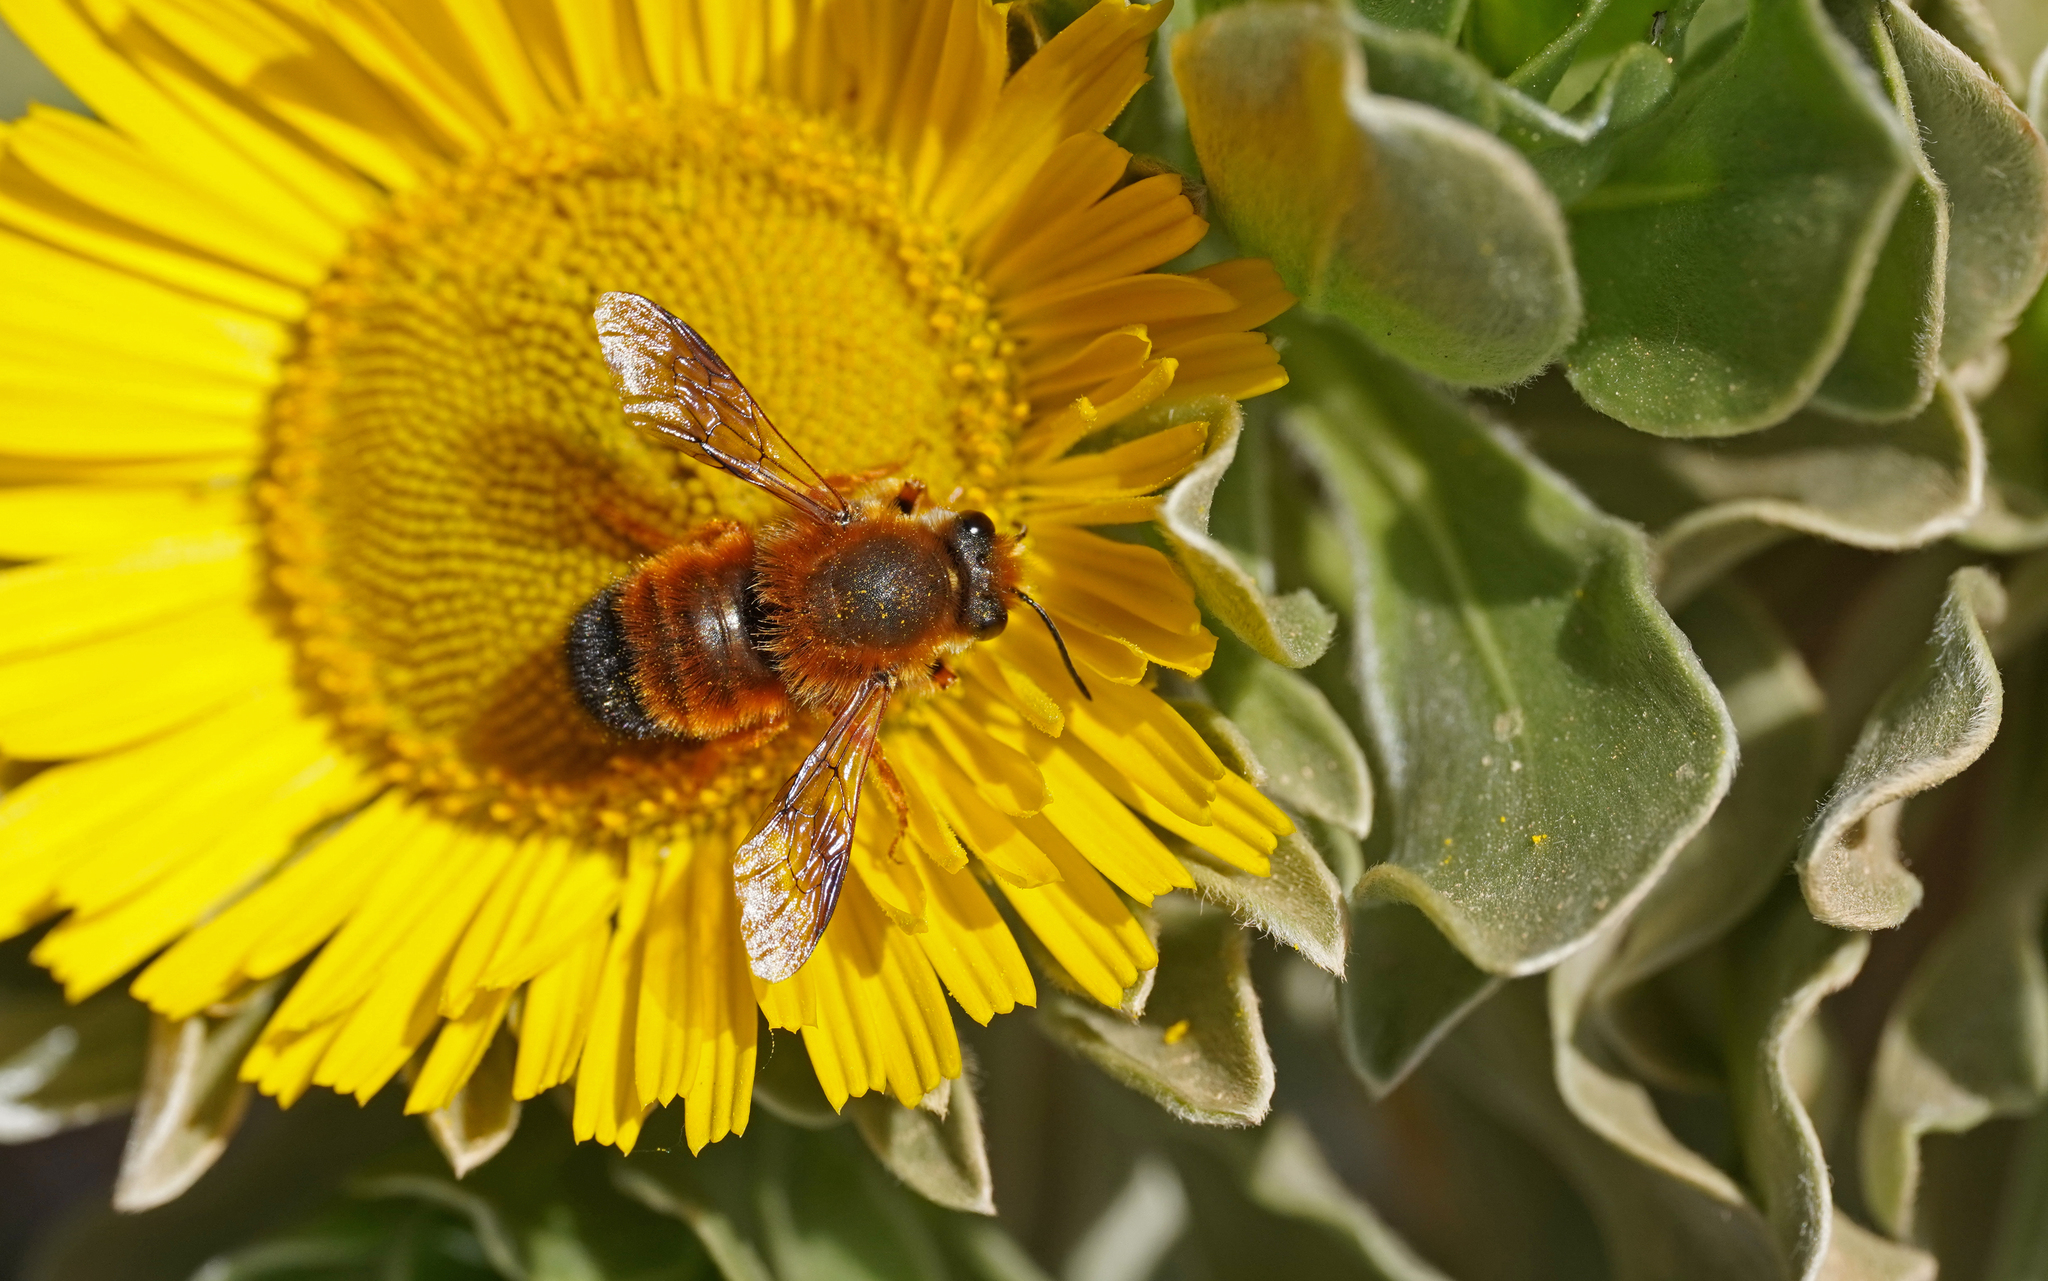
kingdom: Animalia
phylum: Arthropoda
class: Insecta
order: Hymenoptera
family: Megachilidae
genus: Megachile
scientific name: Megachile sicula
